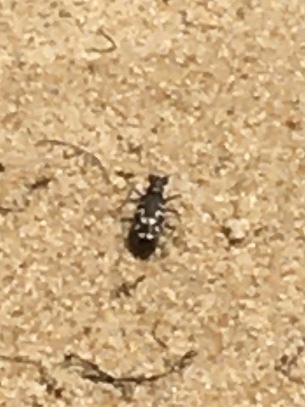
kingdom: Animalia
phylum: Arthropoda
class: Insecta
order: Coleoptera
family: Carabidae
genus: Cicindela
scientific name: Cicindela hirticollis
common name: Hairy-necked tiger beetle
